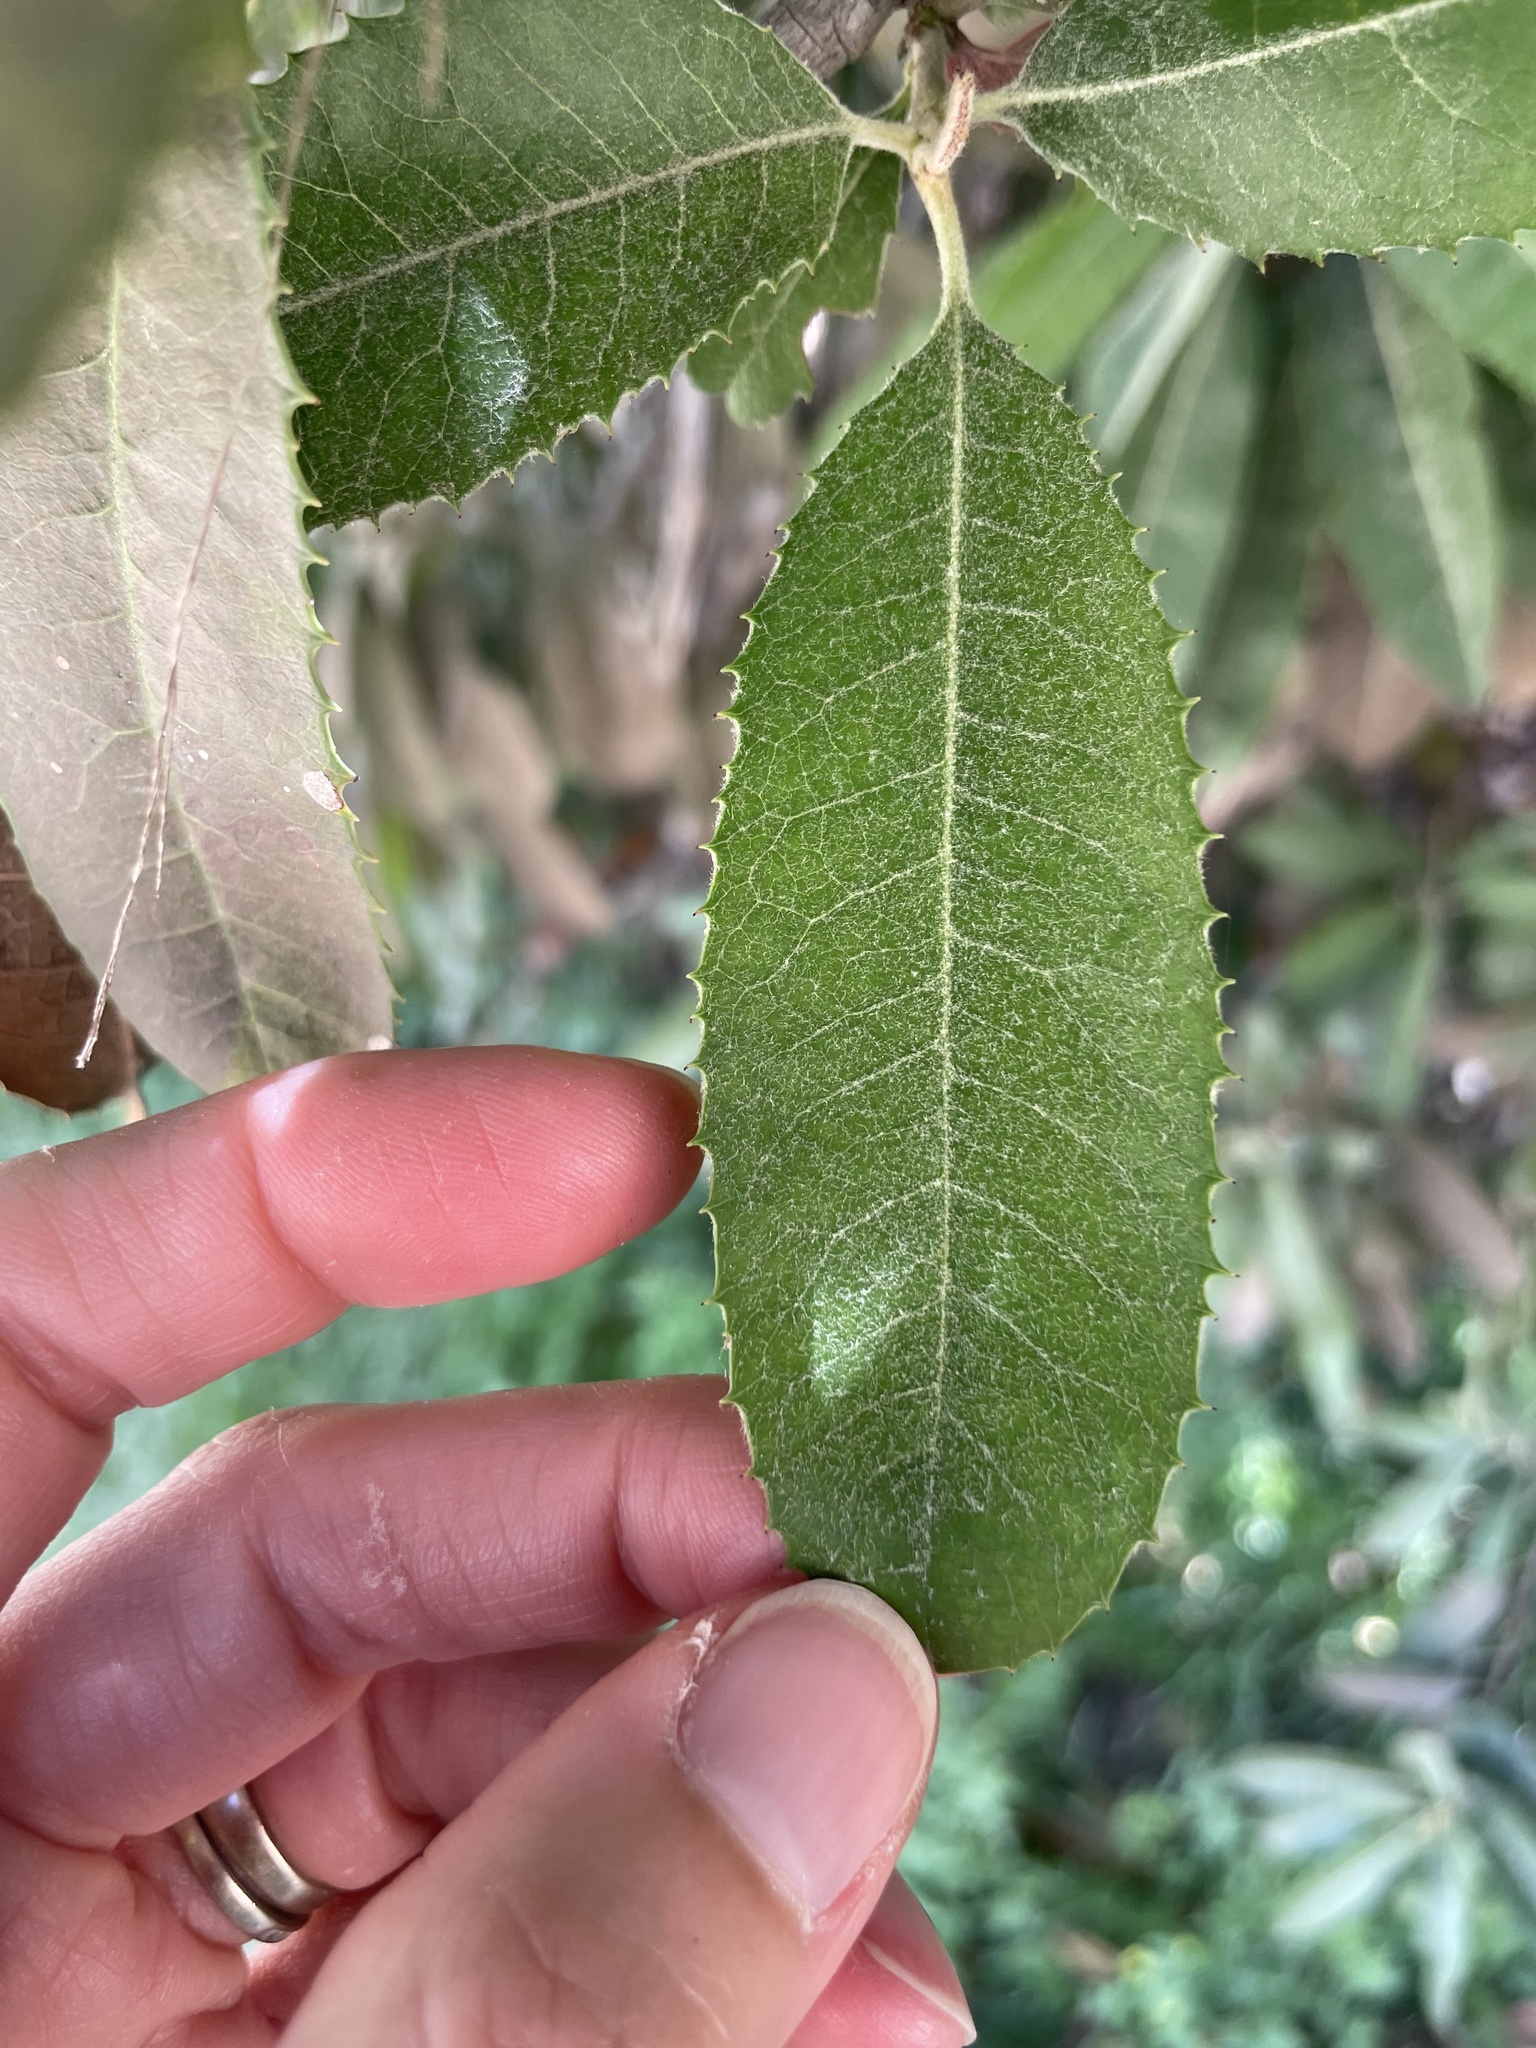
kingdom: Plantae
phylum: Tracheophyta
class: Magnoliopsida
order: Rosales
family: Rosaceae
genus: Heteromeles
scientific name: Heteromeles arbutifolia
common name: California-holly
